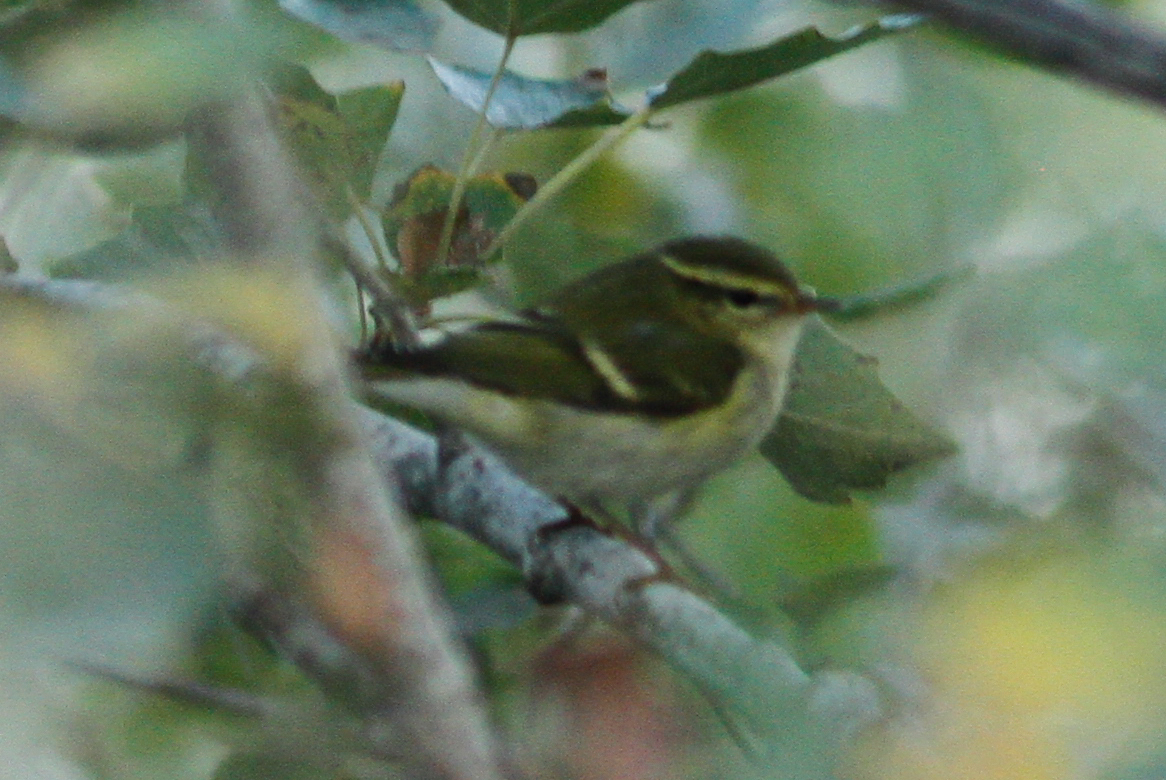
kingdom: Animalia
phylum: Chordata
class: Aves
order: Passeriformes
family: Phylloscopidae
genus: Phylloscopus
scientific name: Phylloscopus inornatus
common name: Yellow-browed warbler
